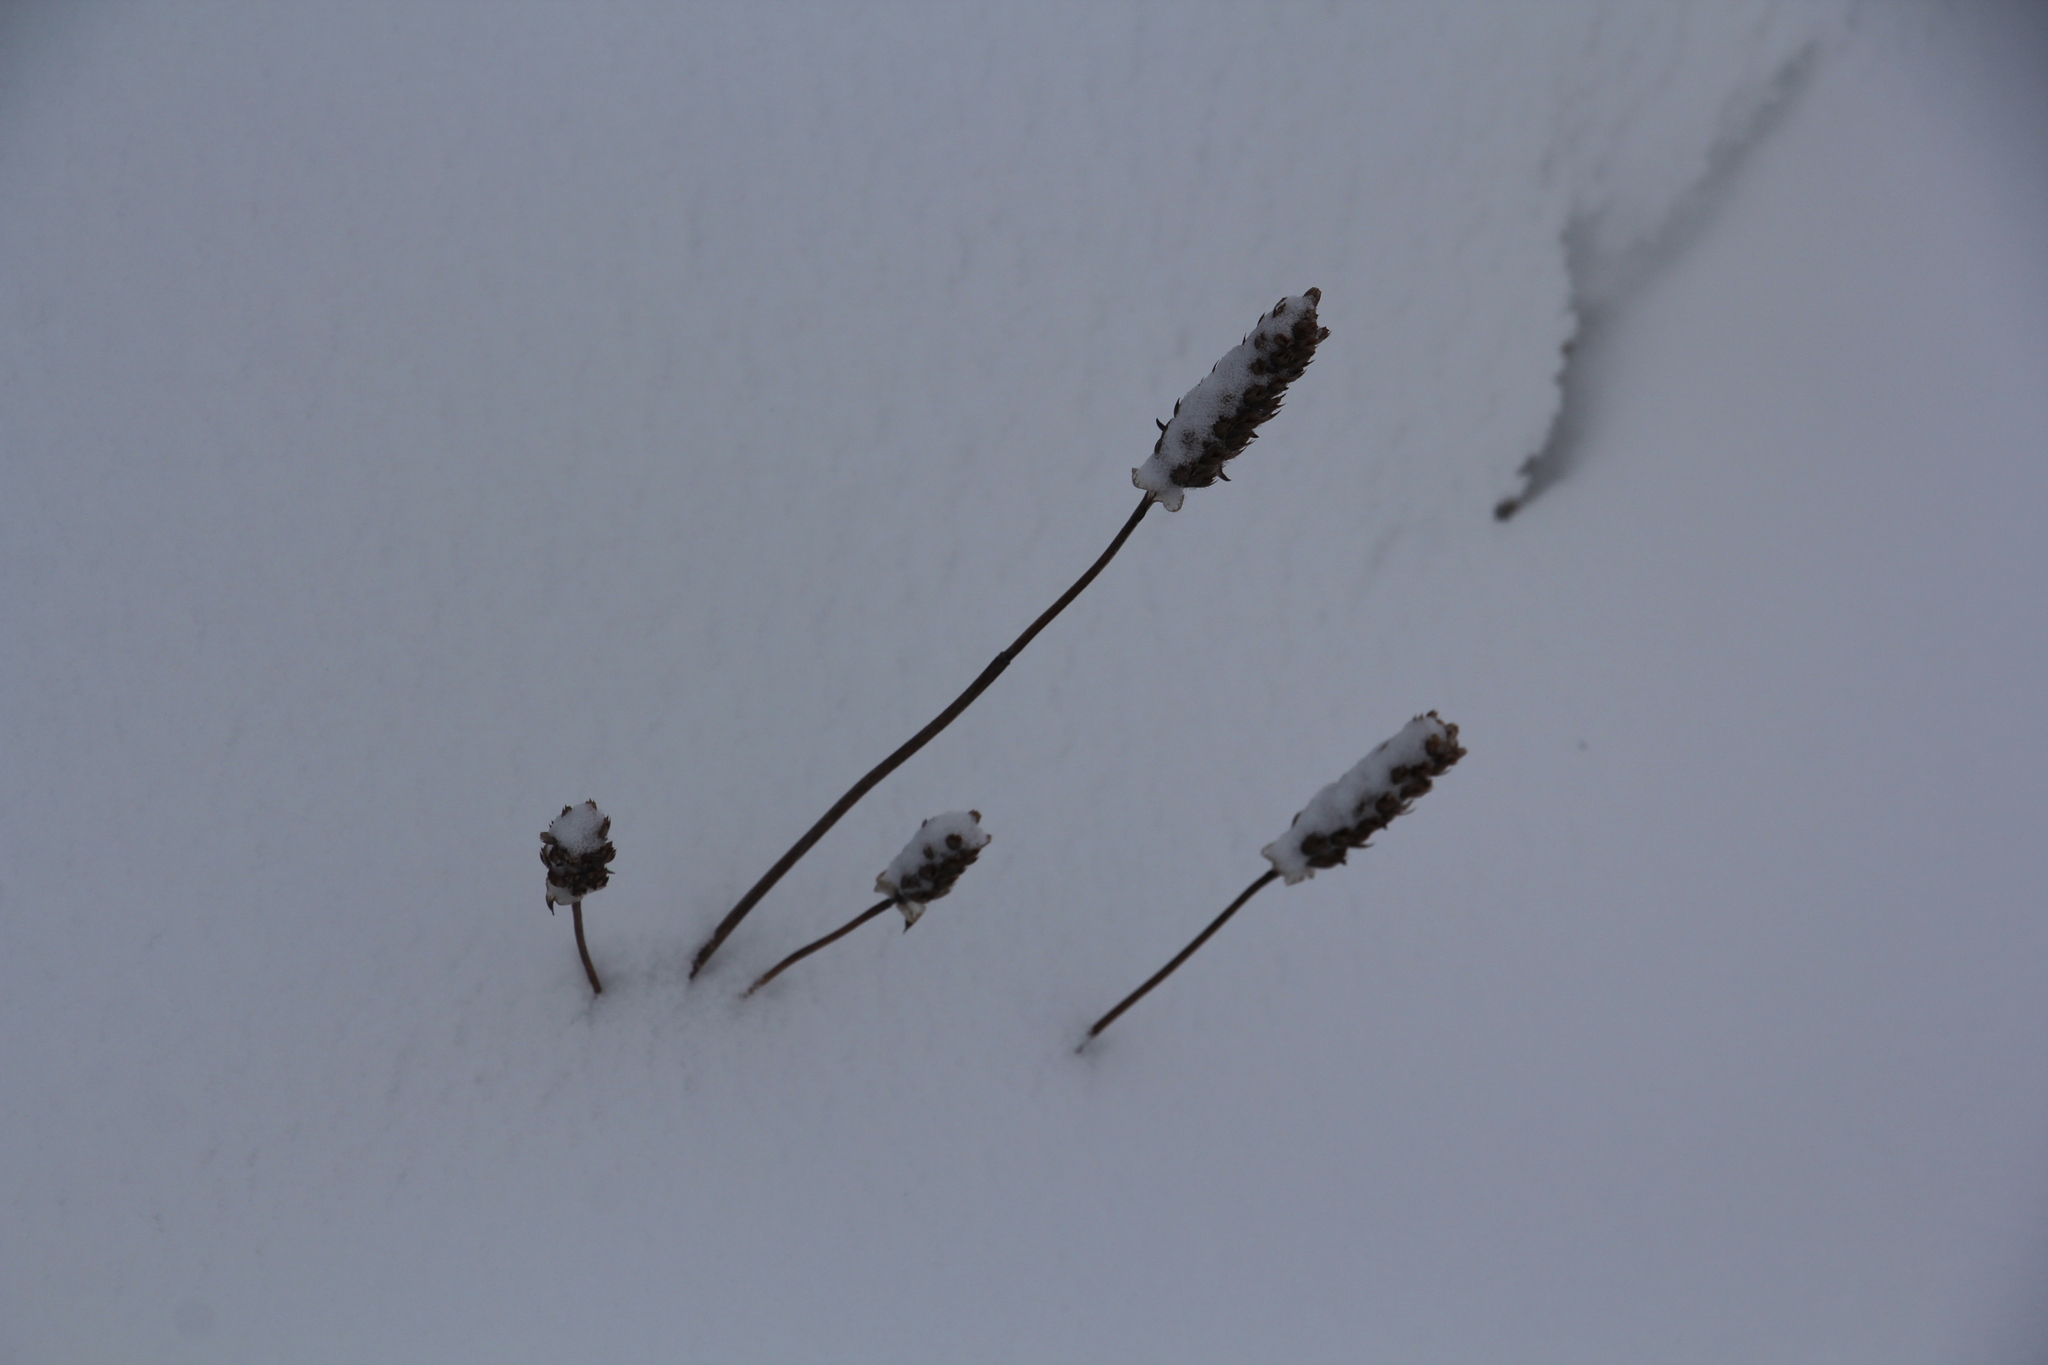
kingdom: Plantae
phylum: Tracheophyta
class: Magnoliopsida
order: Lamiales
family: Lamiaceae
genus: Prunella
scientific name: Prunella vulgaris
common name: Heal-all
